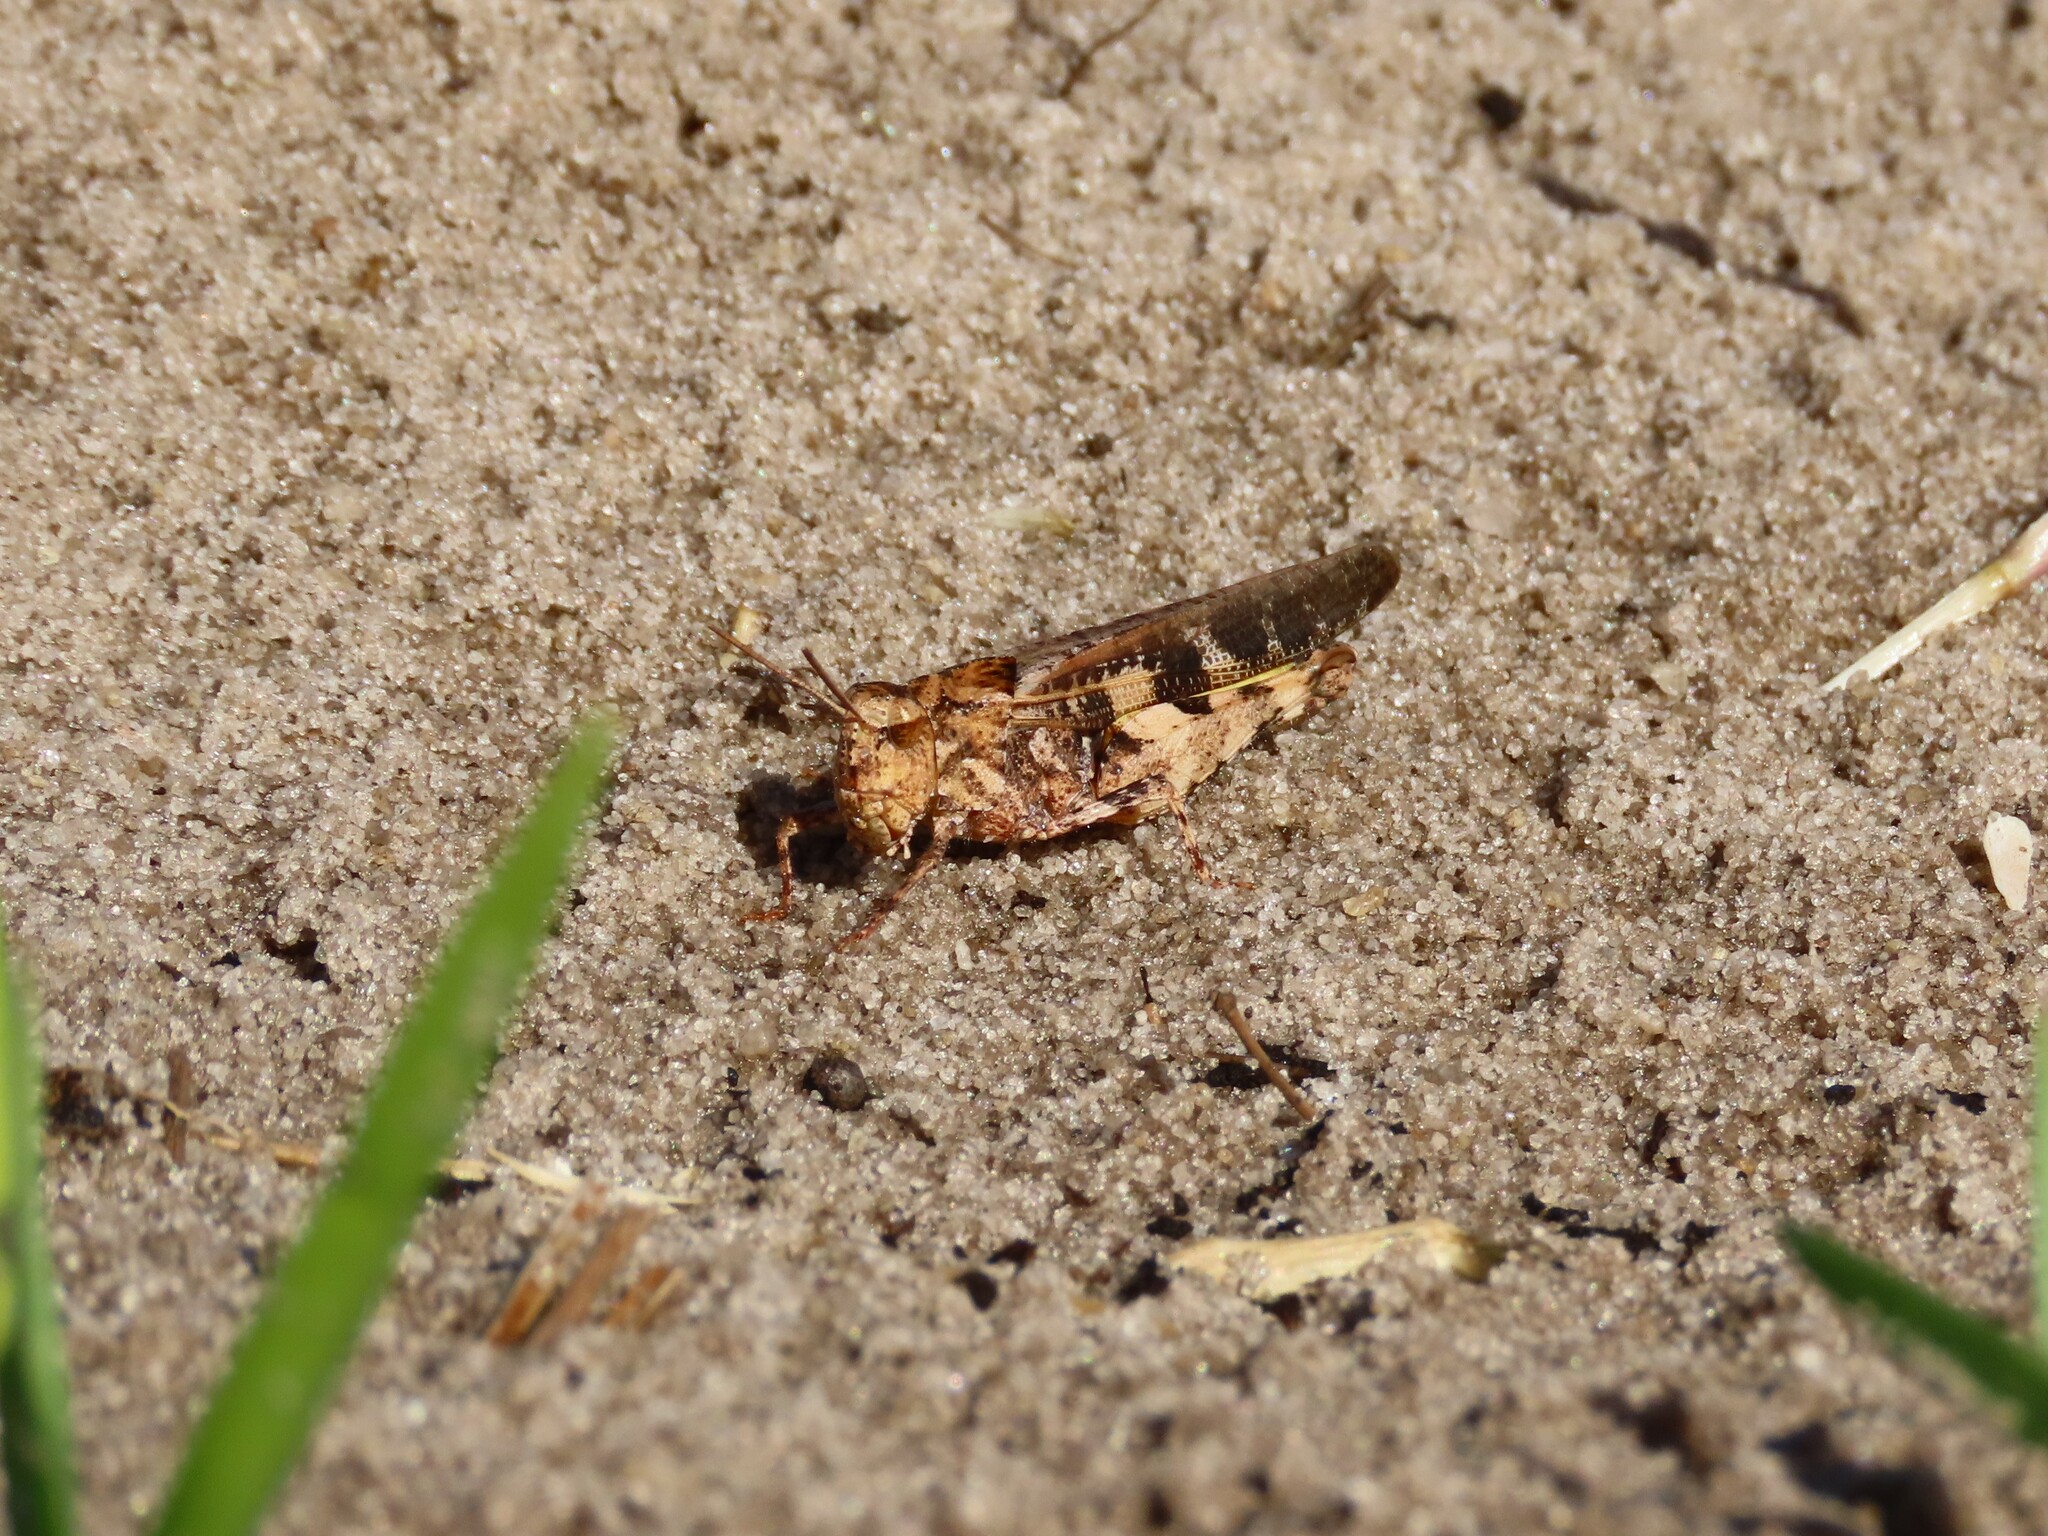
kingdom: Animalia
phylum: Arthropoda
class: Insecta
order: Orthoptera
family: Acrididae
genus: Chortophaga
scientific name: Chortophaga australior
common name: Southern green-striped grasshopper
